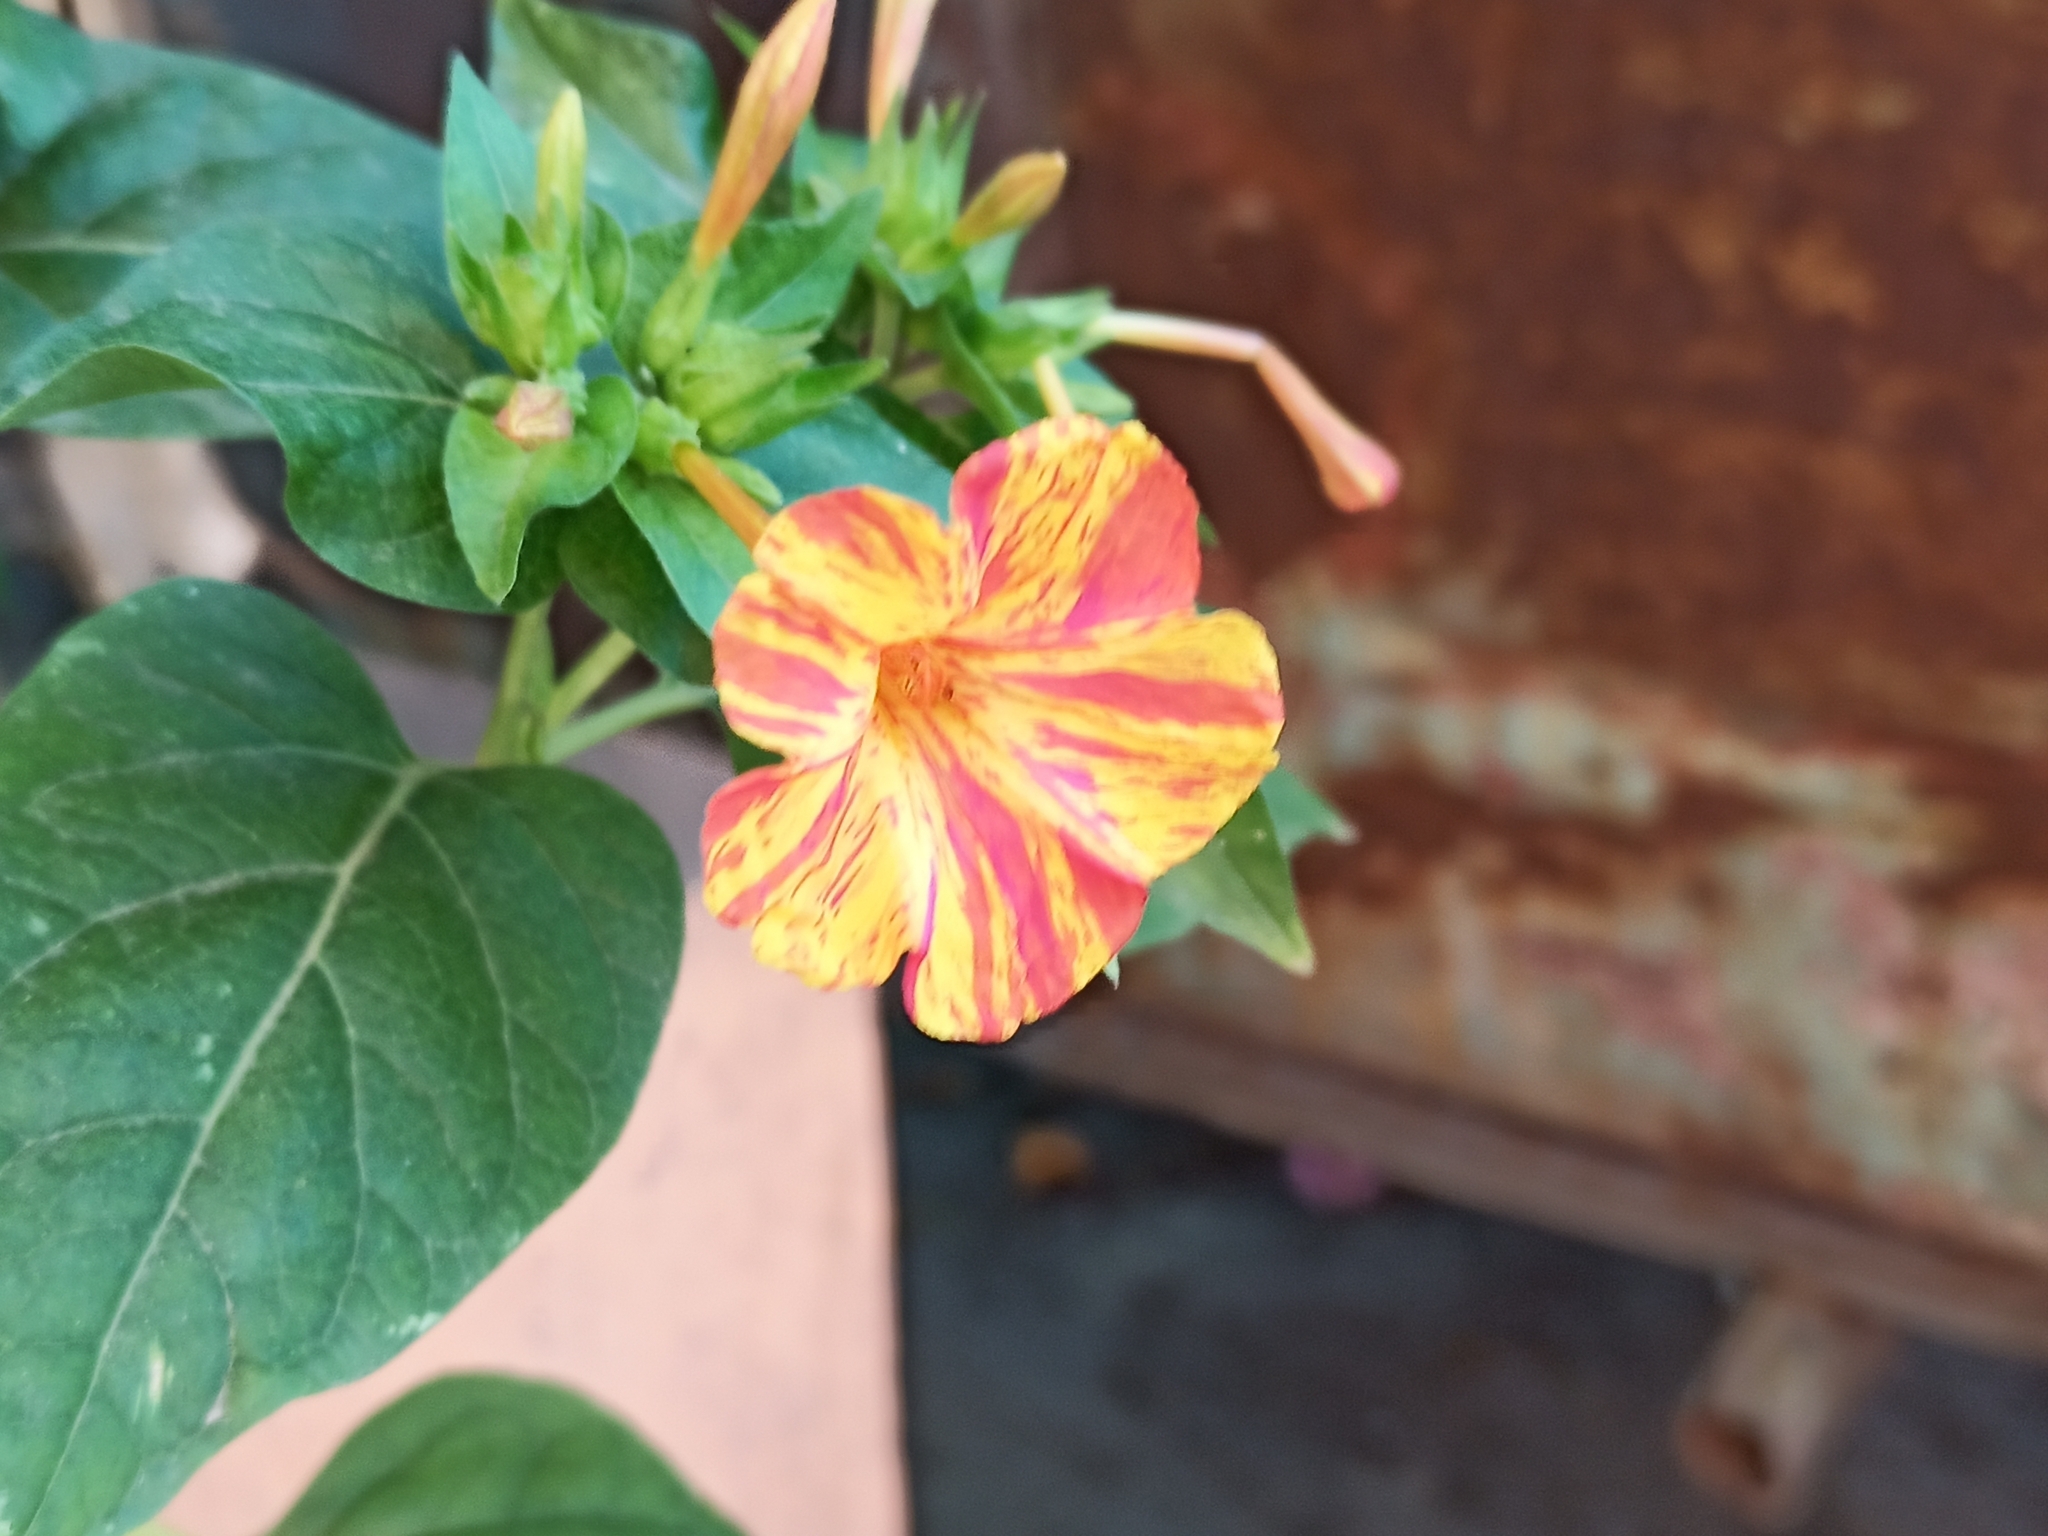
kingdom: Plantae
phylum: Tracheophyta
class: Magnoliopsida
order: Caryophyllales
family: Nyctaginaceae
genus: Mirabilis
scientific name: Mirabilis jalapa
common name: Marvel-of-peru
